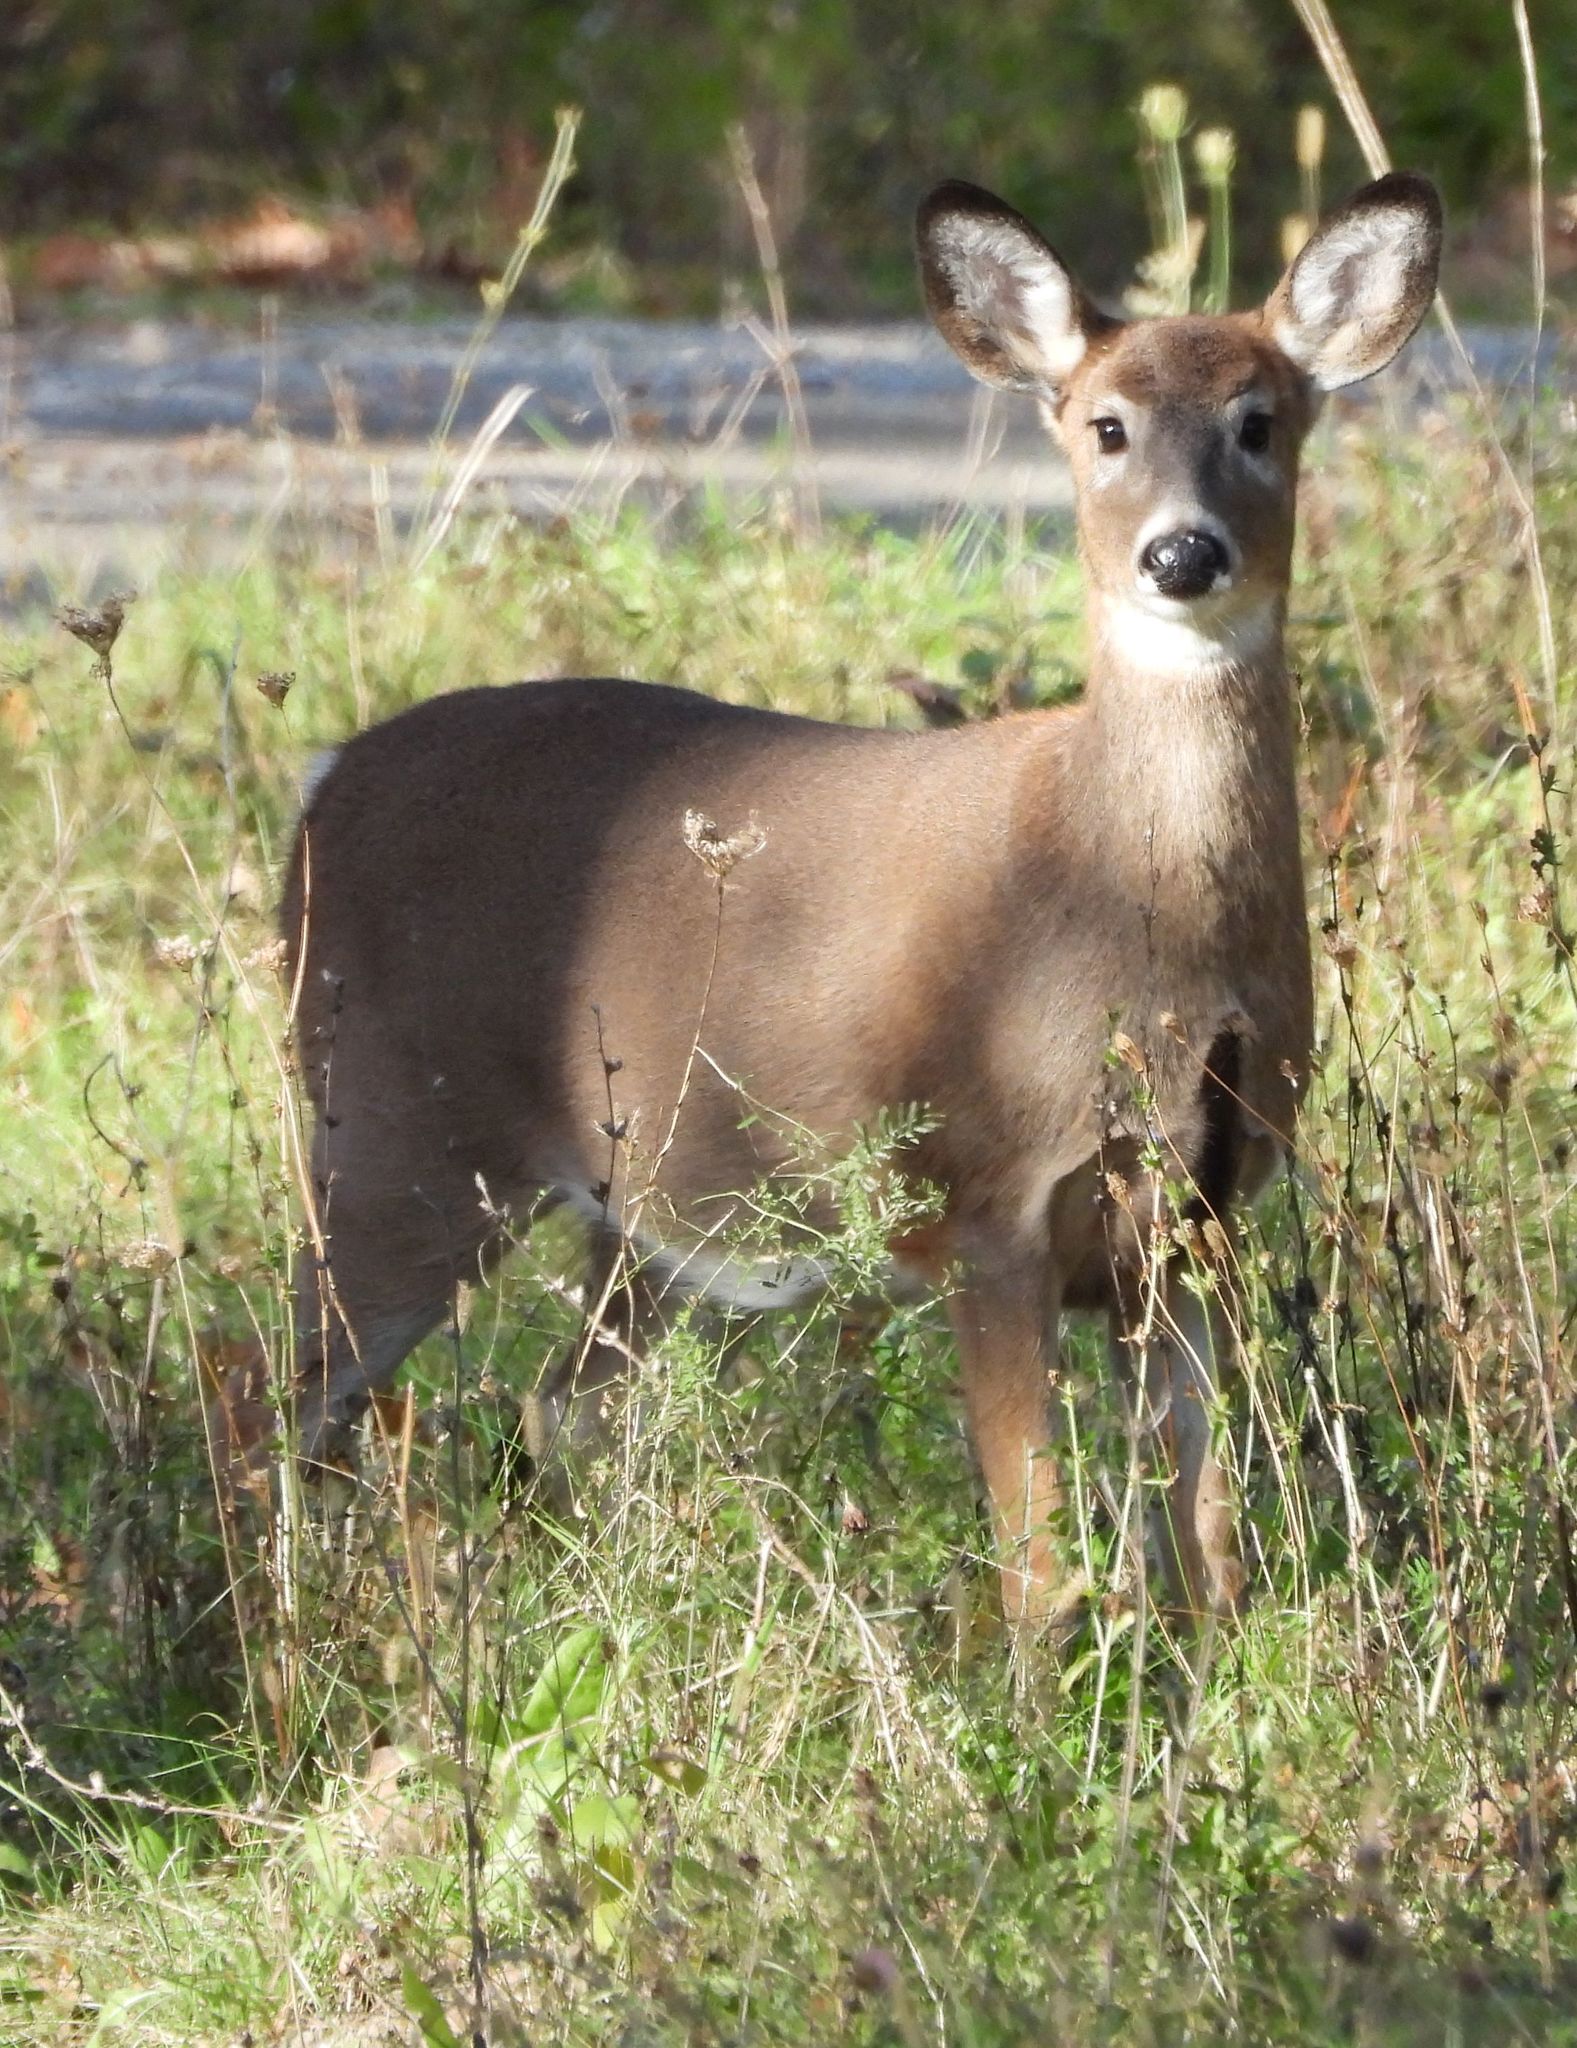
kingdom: Animalia
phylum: Chordata
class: Mammalia
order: Artiodactyla
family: Cervidae
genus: Odocoileus
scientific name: Odocoileus virginianus
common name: White-tailed deer
